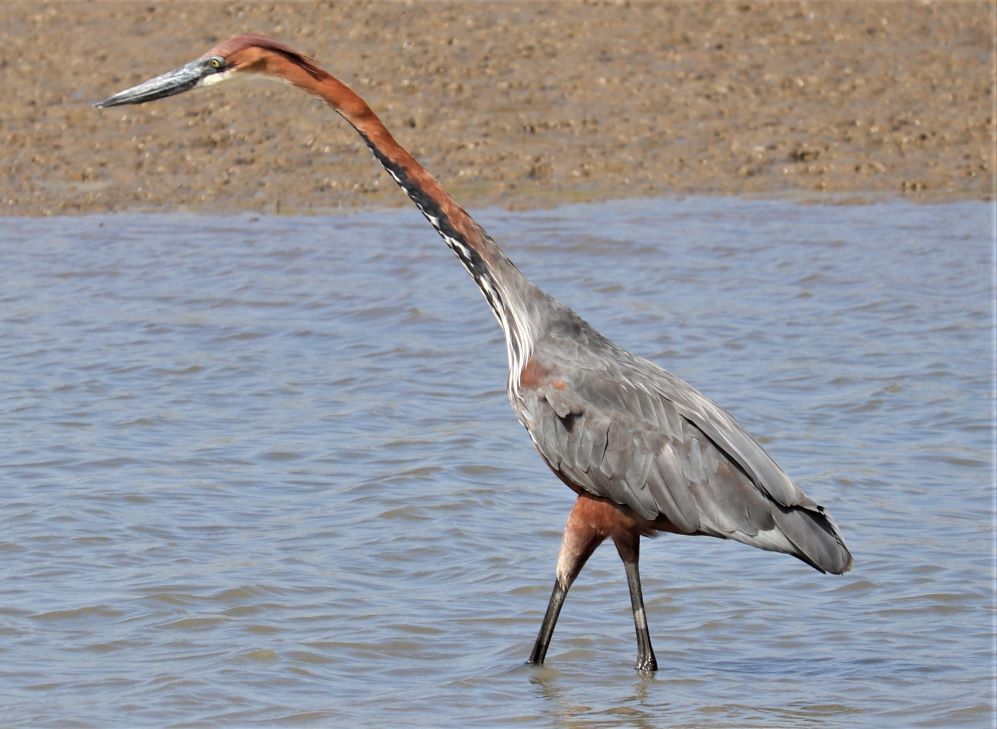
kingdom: Animalia
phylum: Chordata
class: Aves
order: Pelecaniformes
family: Ardeidae
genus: Ardea
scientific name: Ardea goliath
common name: Goliath heron
